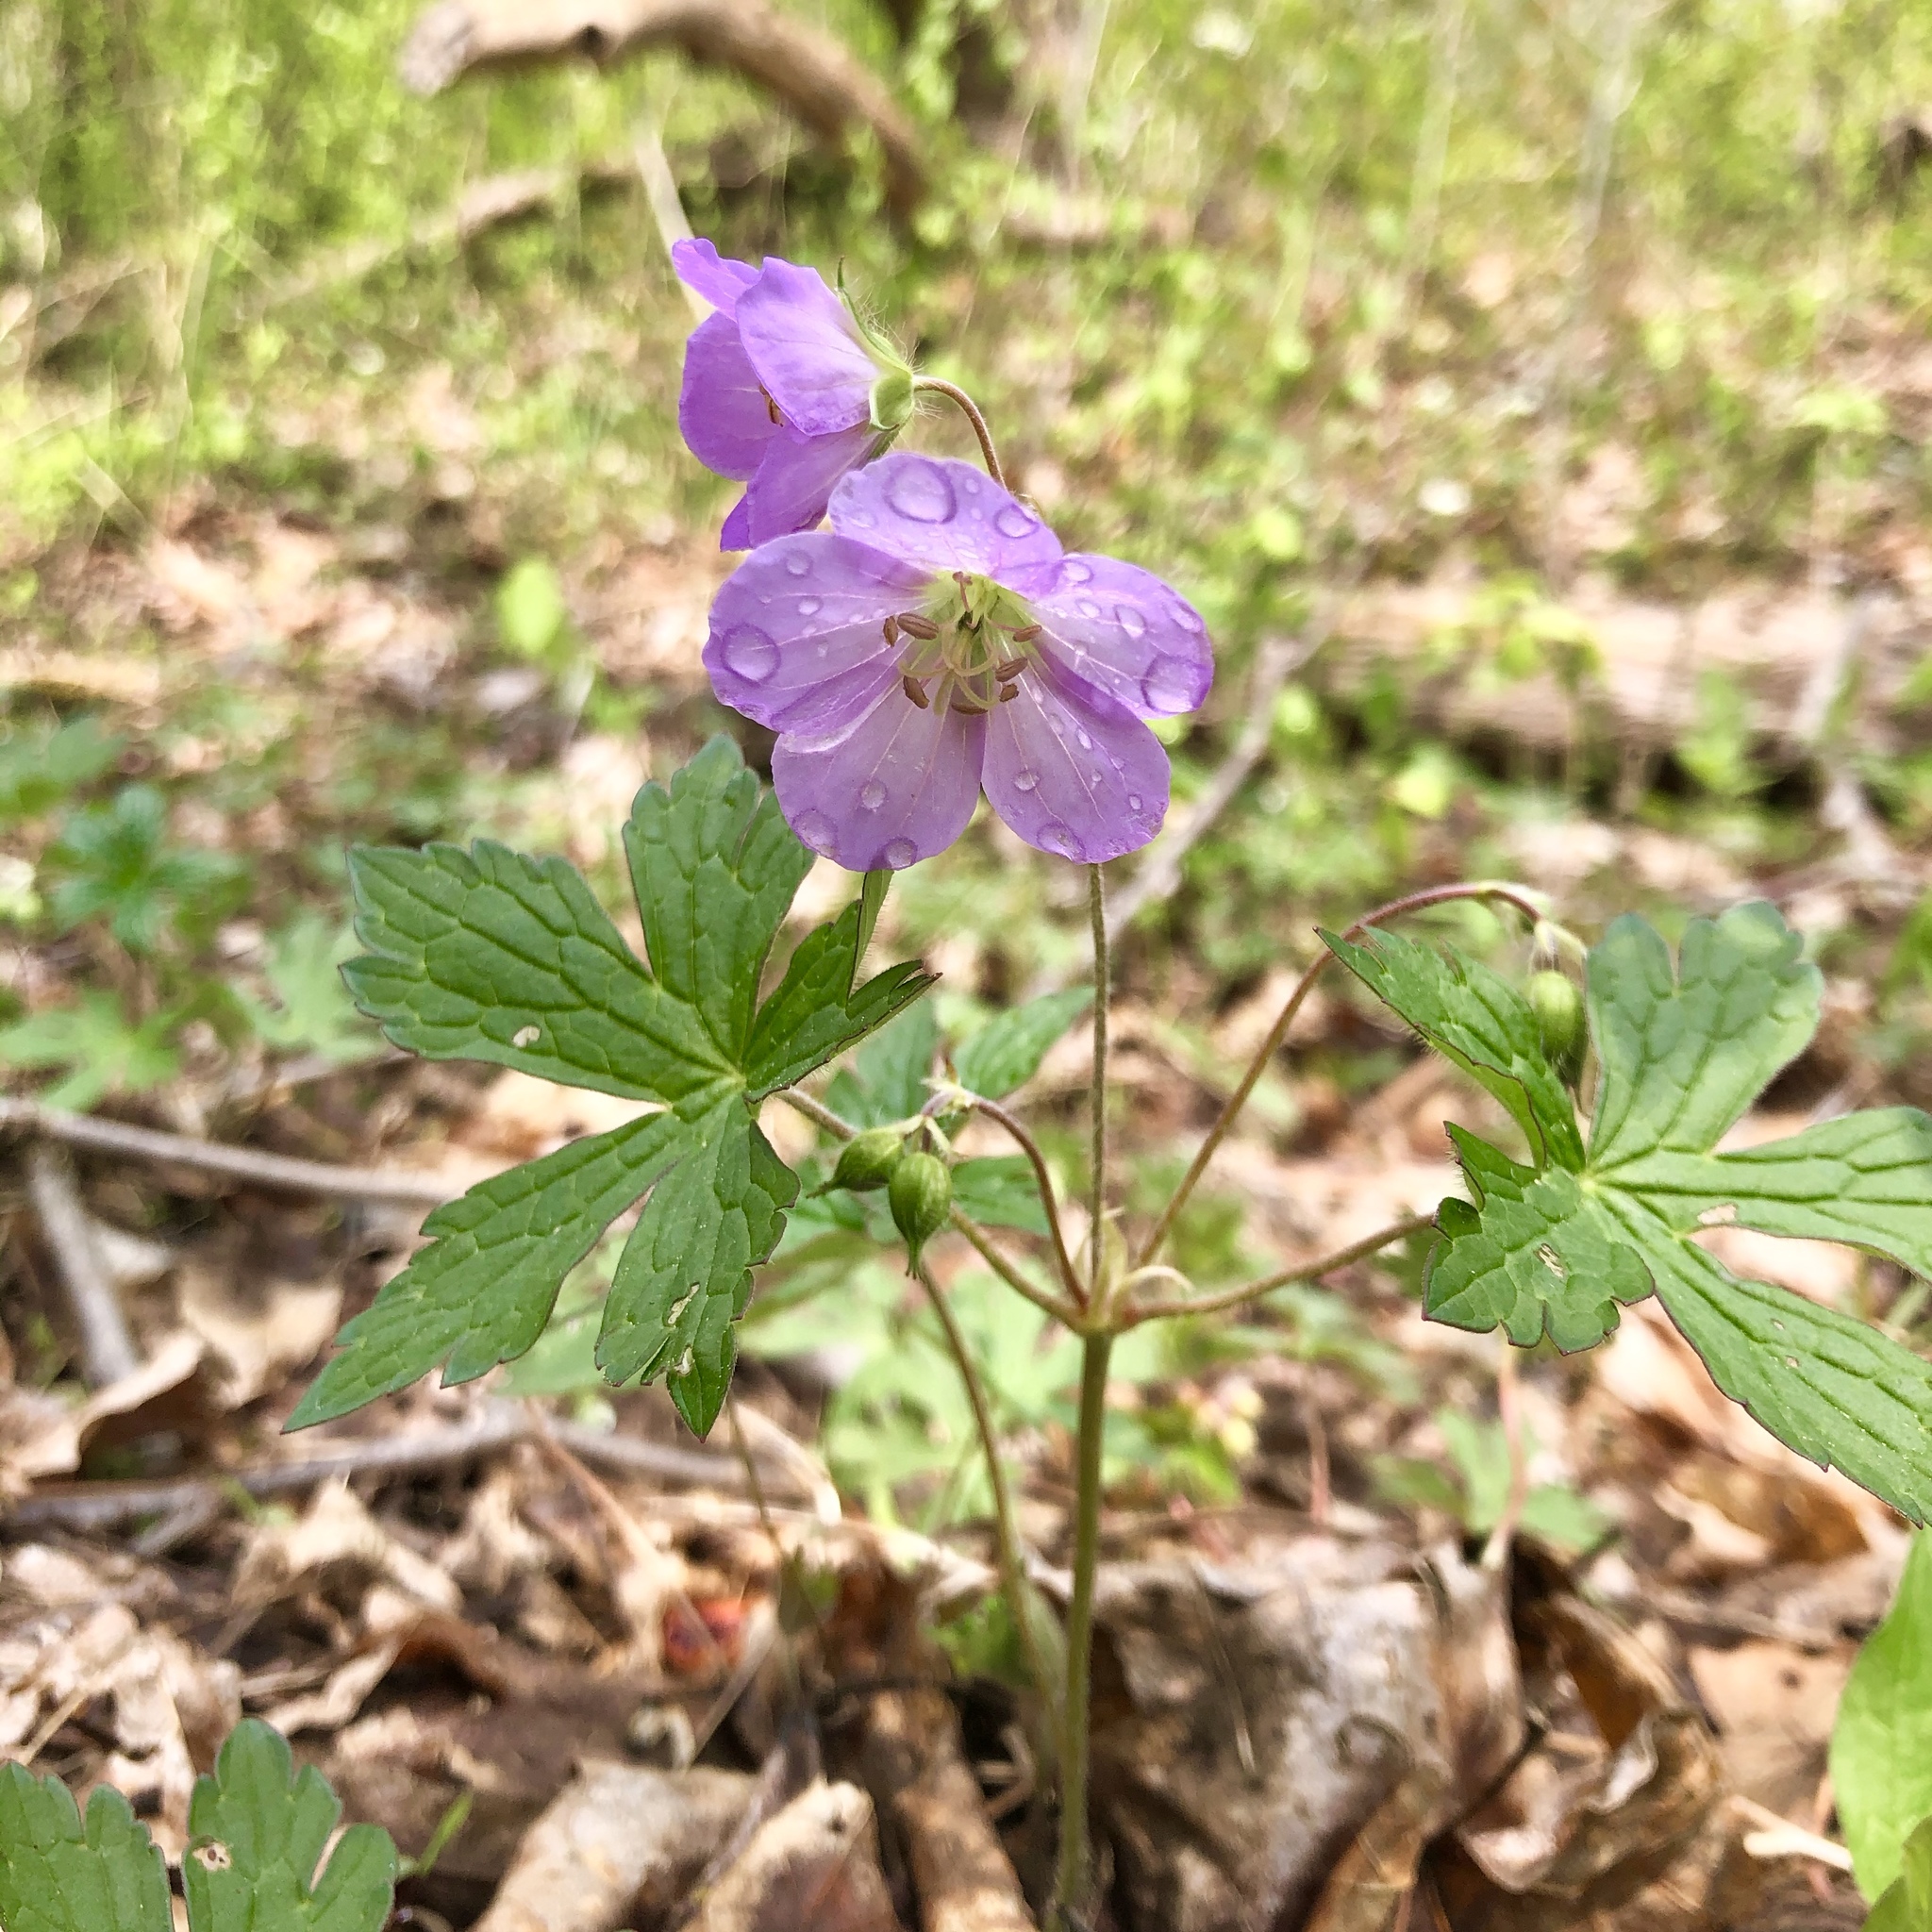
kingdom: Plantae
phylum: Tracheophyta
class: Magnoliopsida
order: Geraniales
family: Geraniaceae
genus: Geranium
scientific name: Geranium maculatum
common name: Spotted geranium
